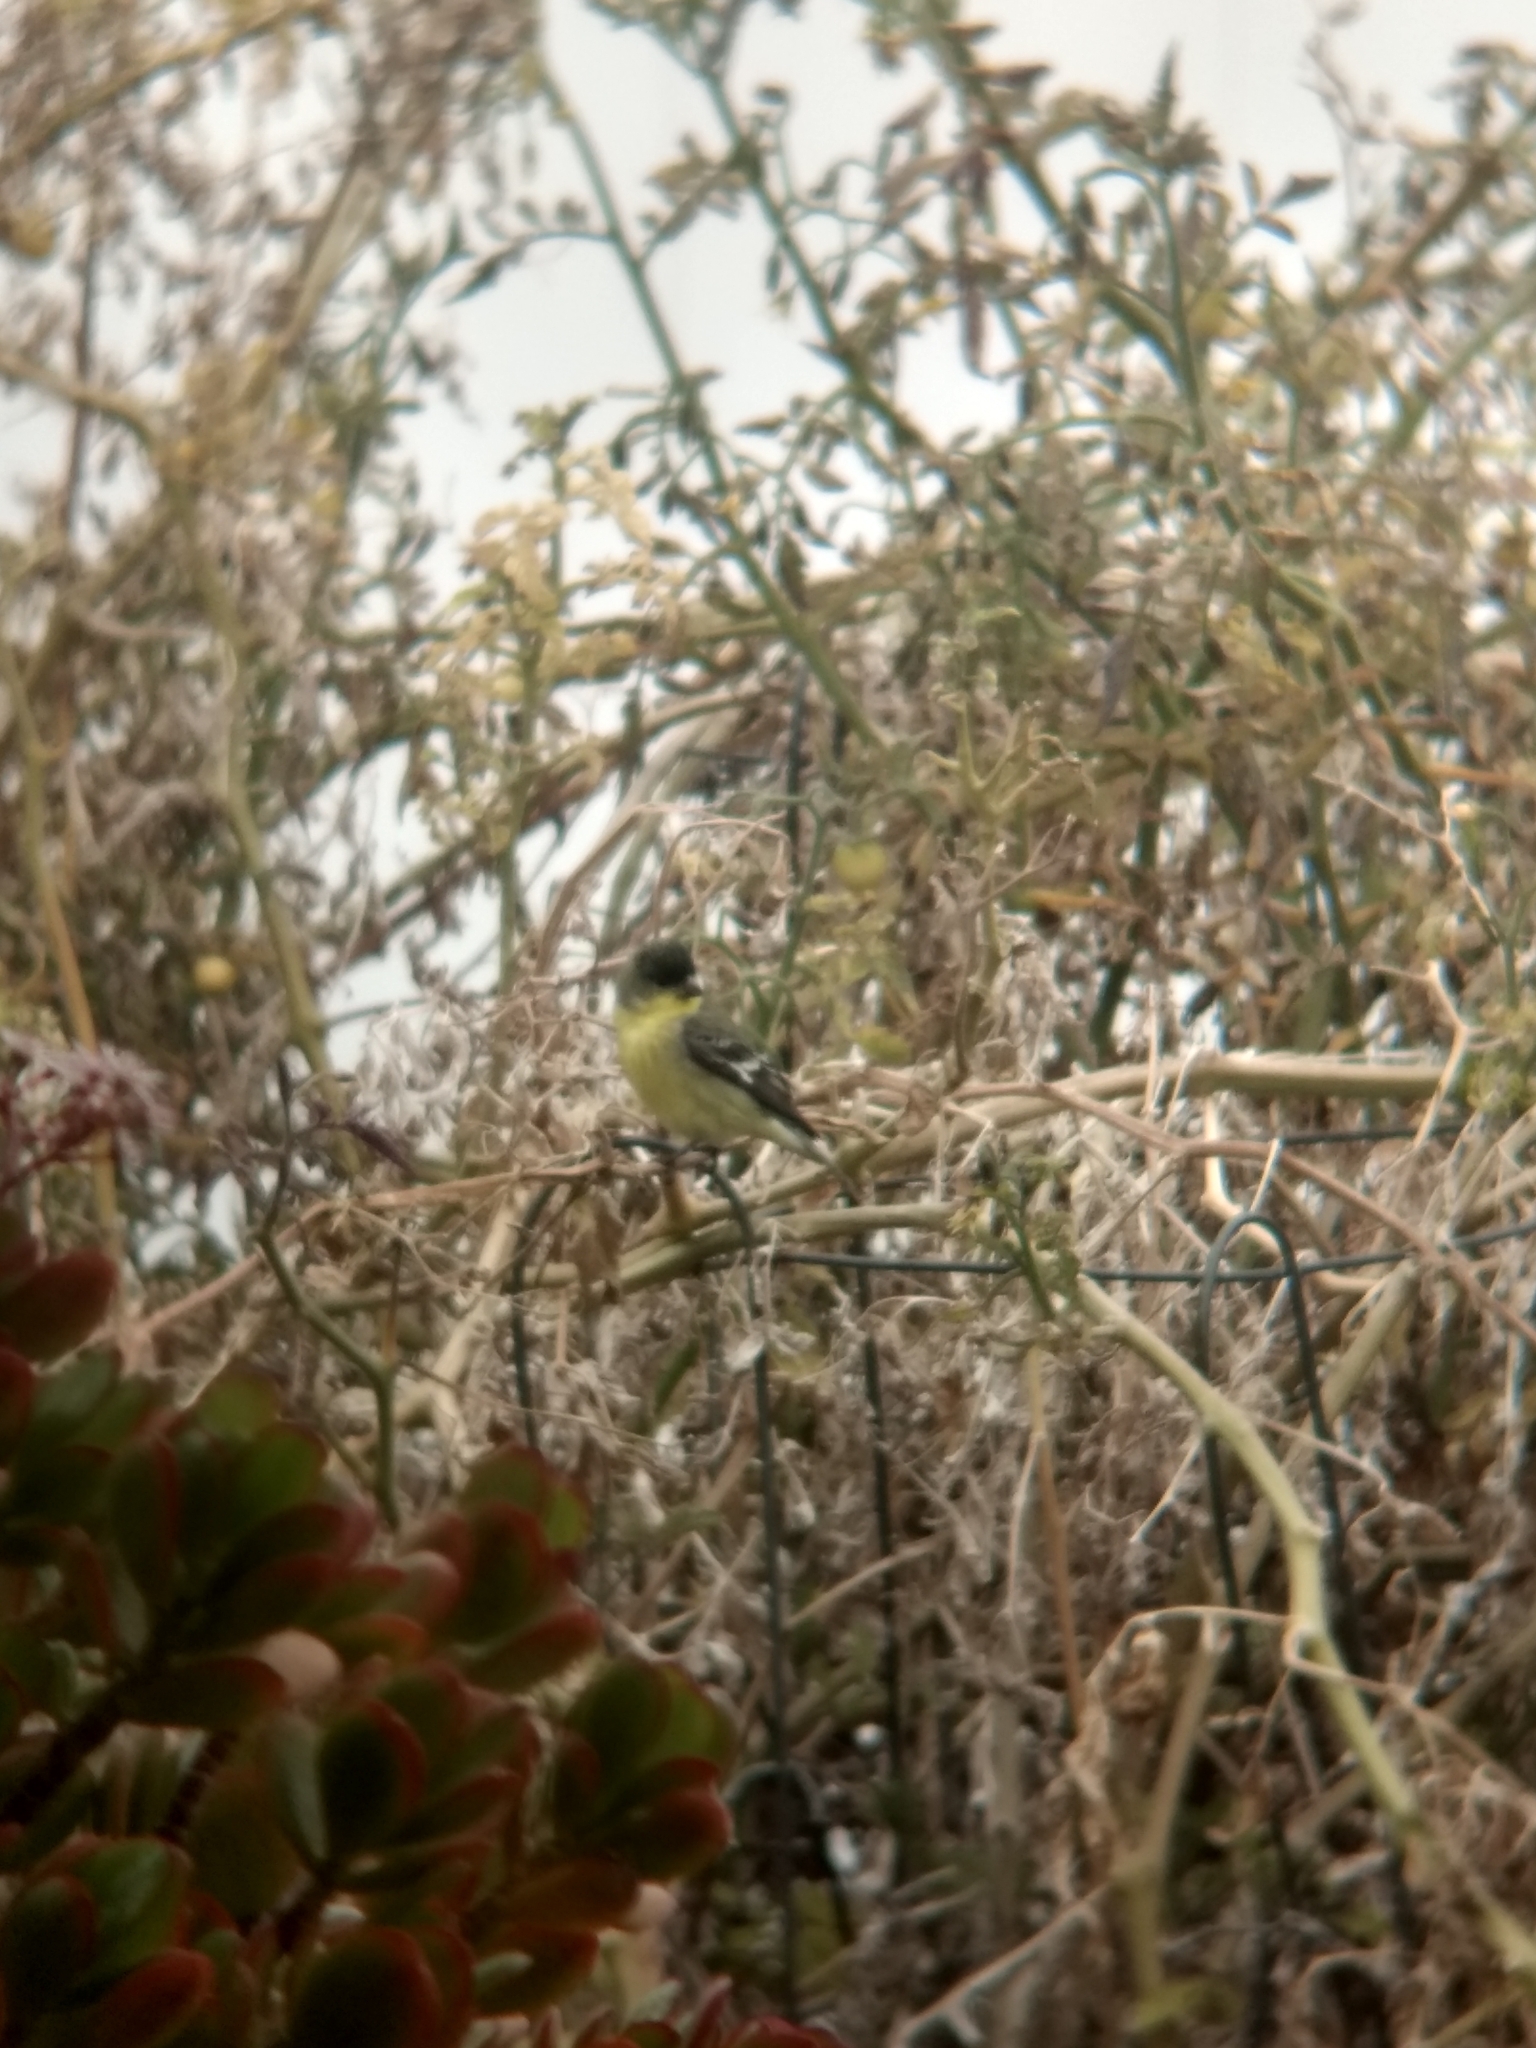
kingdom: Animalia
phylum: Chordata
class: Aves
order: Passeriformes
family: Fringillidae
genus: Spinus
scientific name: Spinus psaltria
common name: Lesser goldfinch
